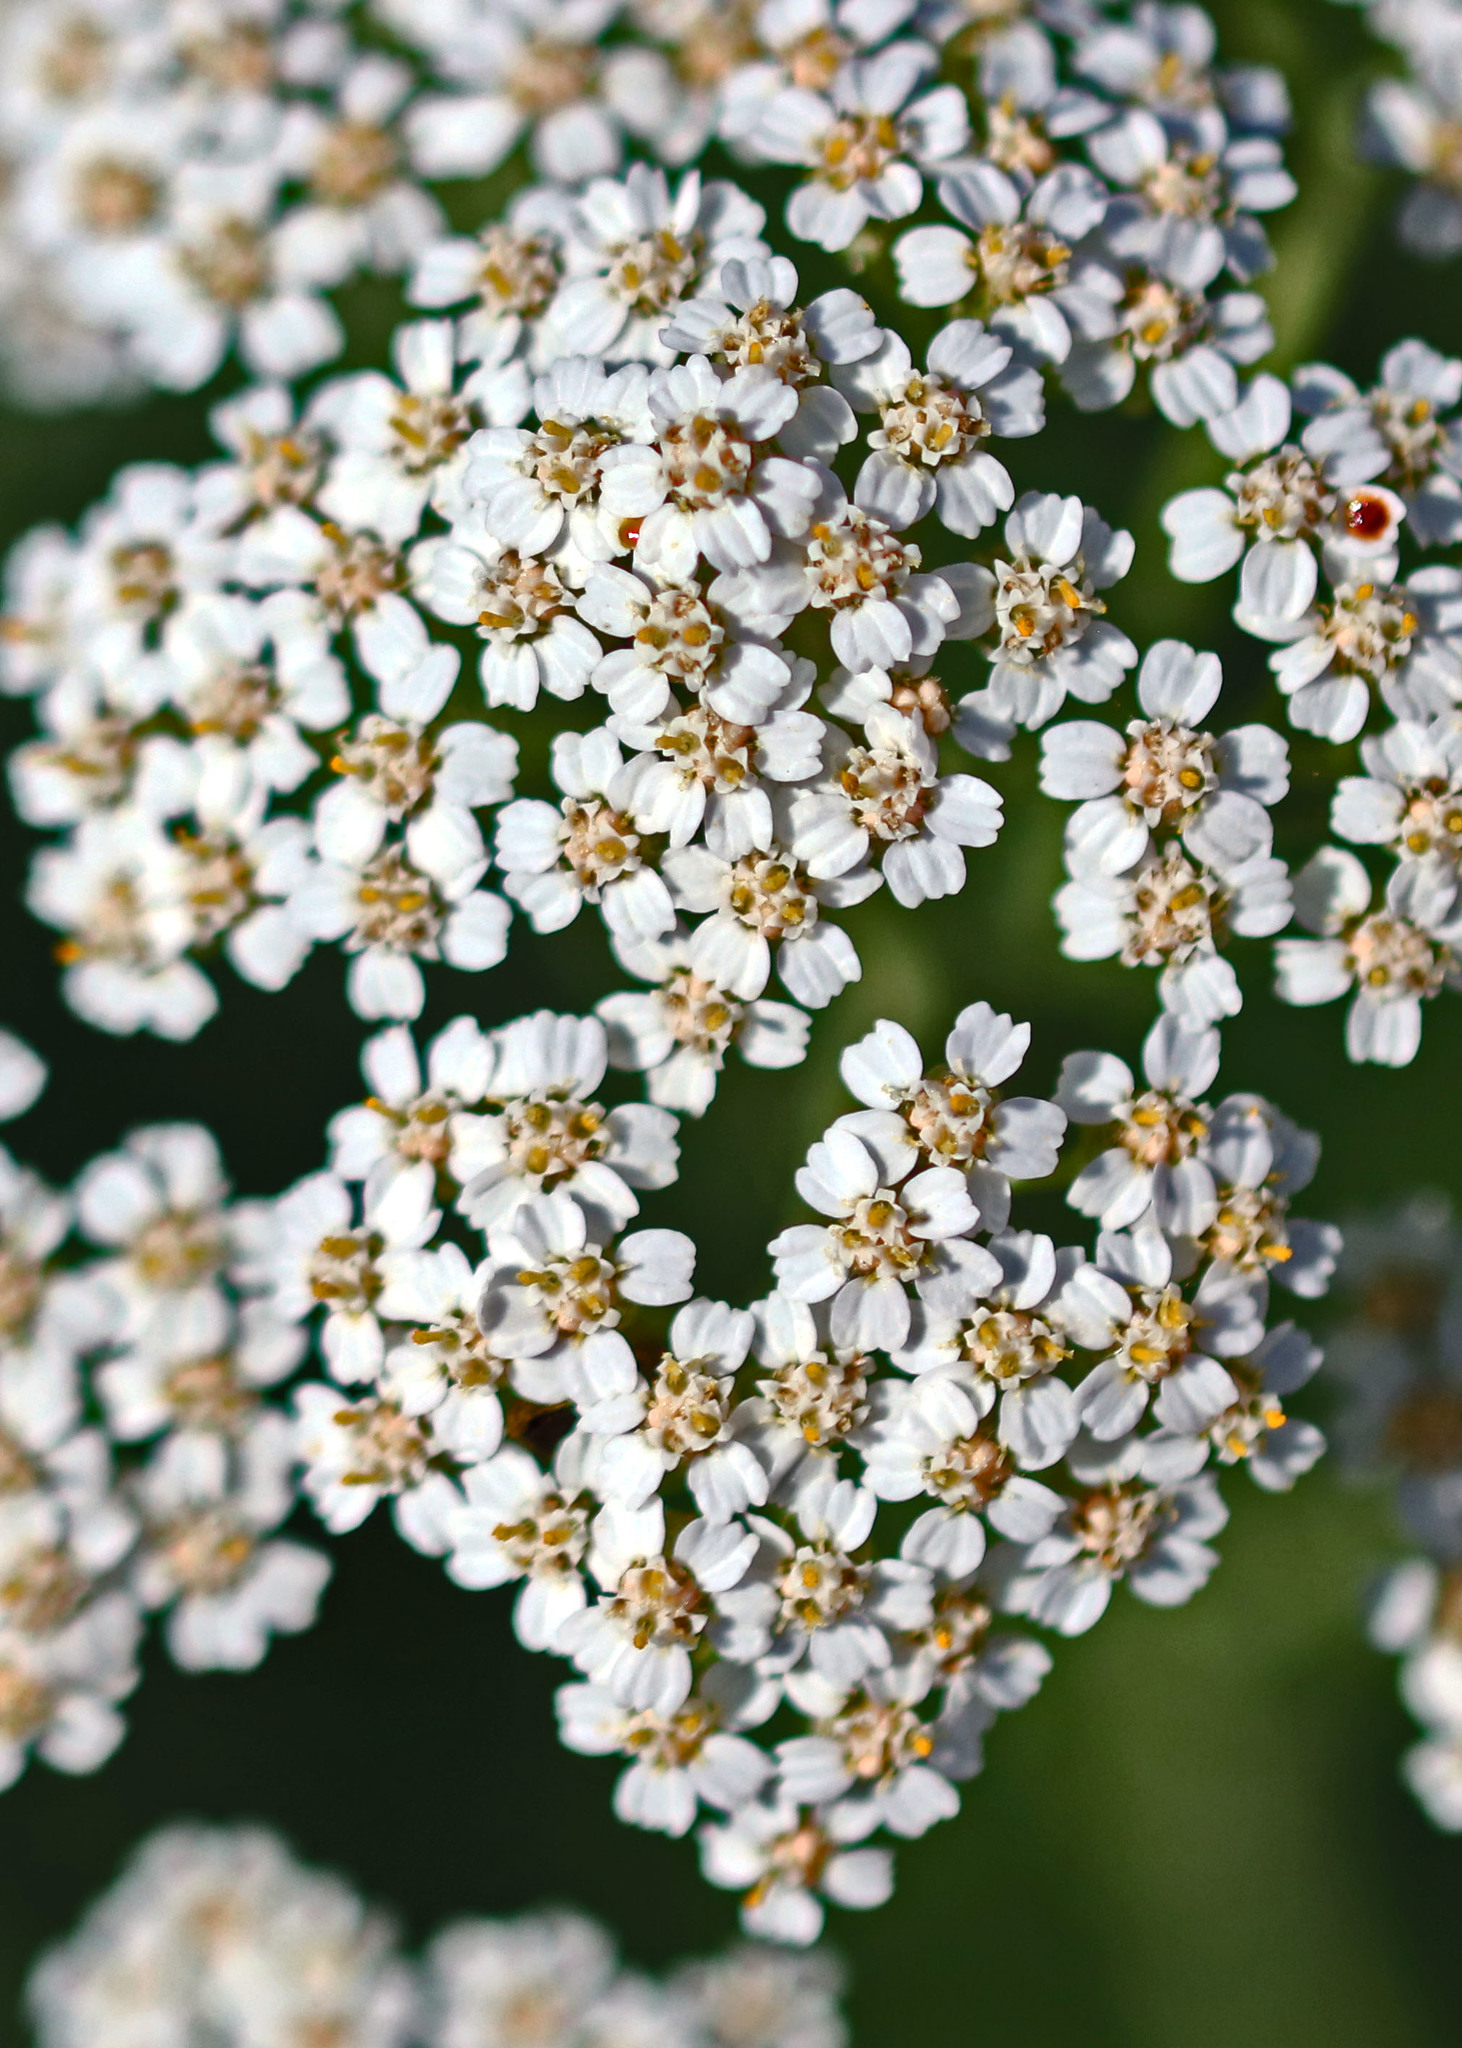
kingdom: Plantae
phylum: Tracheophyta
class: Magnoliopsida
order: Asterales
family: Asteraceae
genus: Achillea
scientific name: Achillea millefolium
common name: Yarrow
